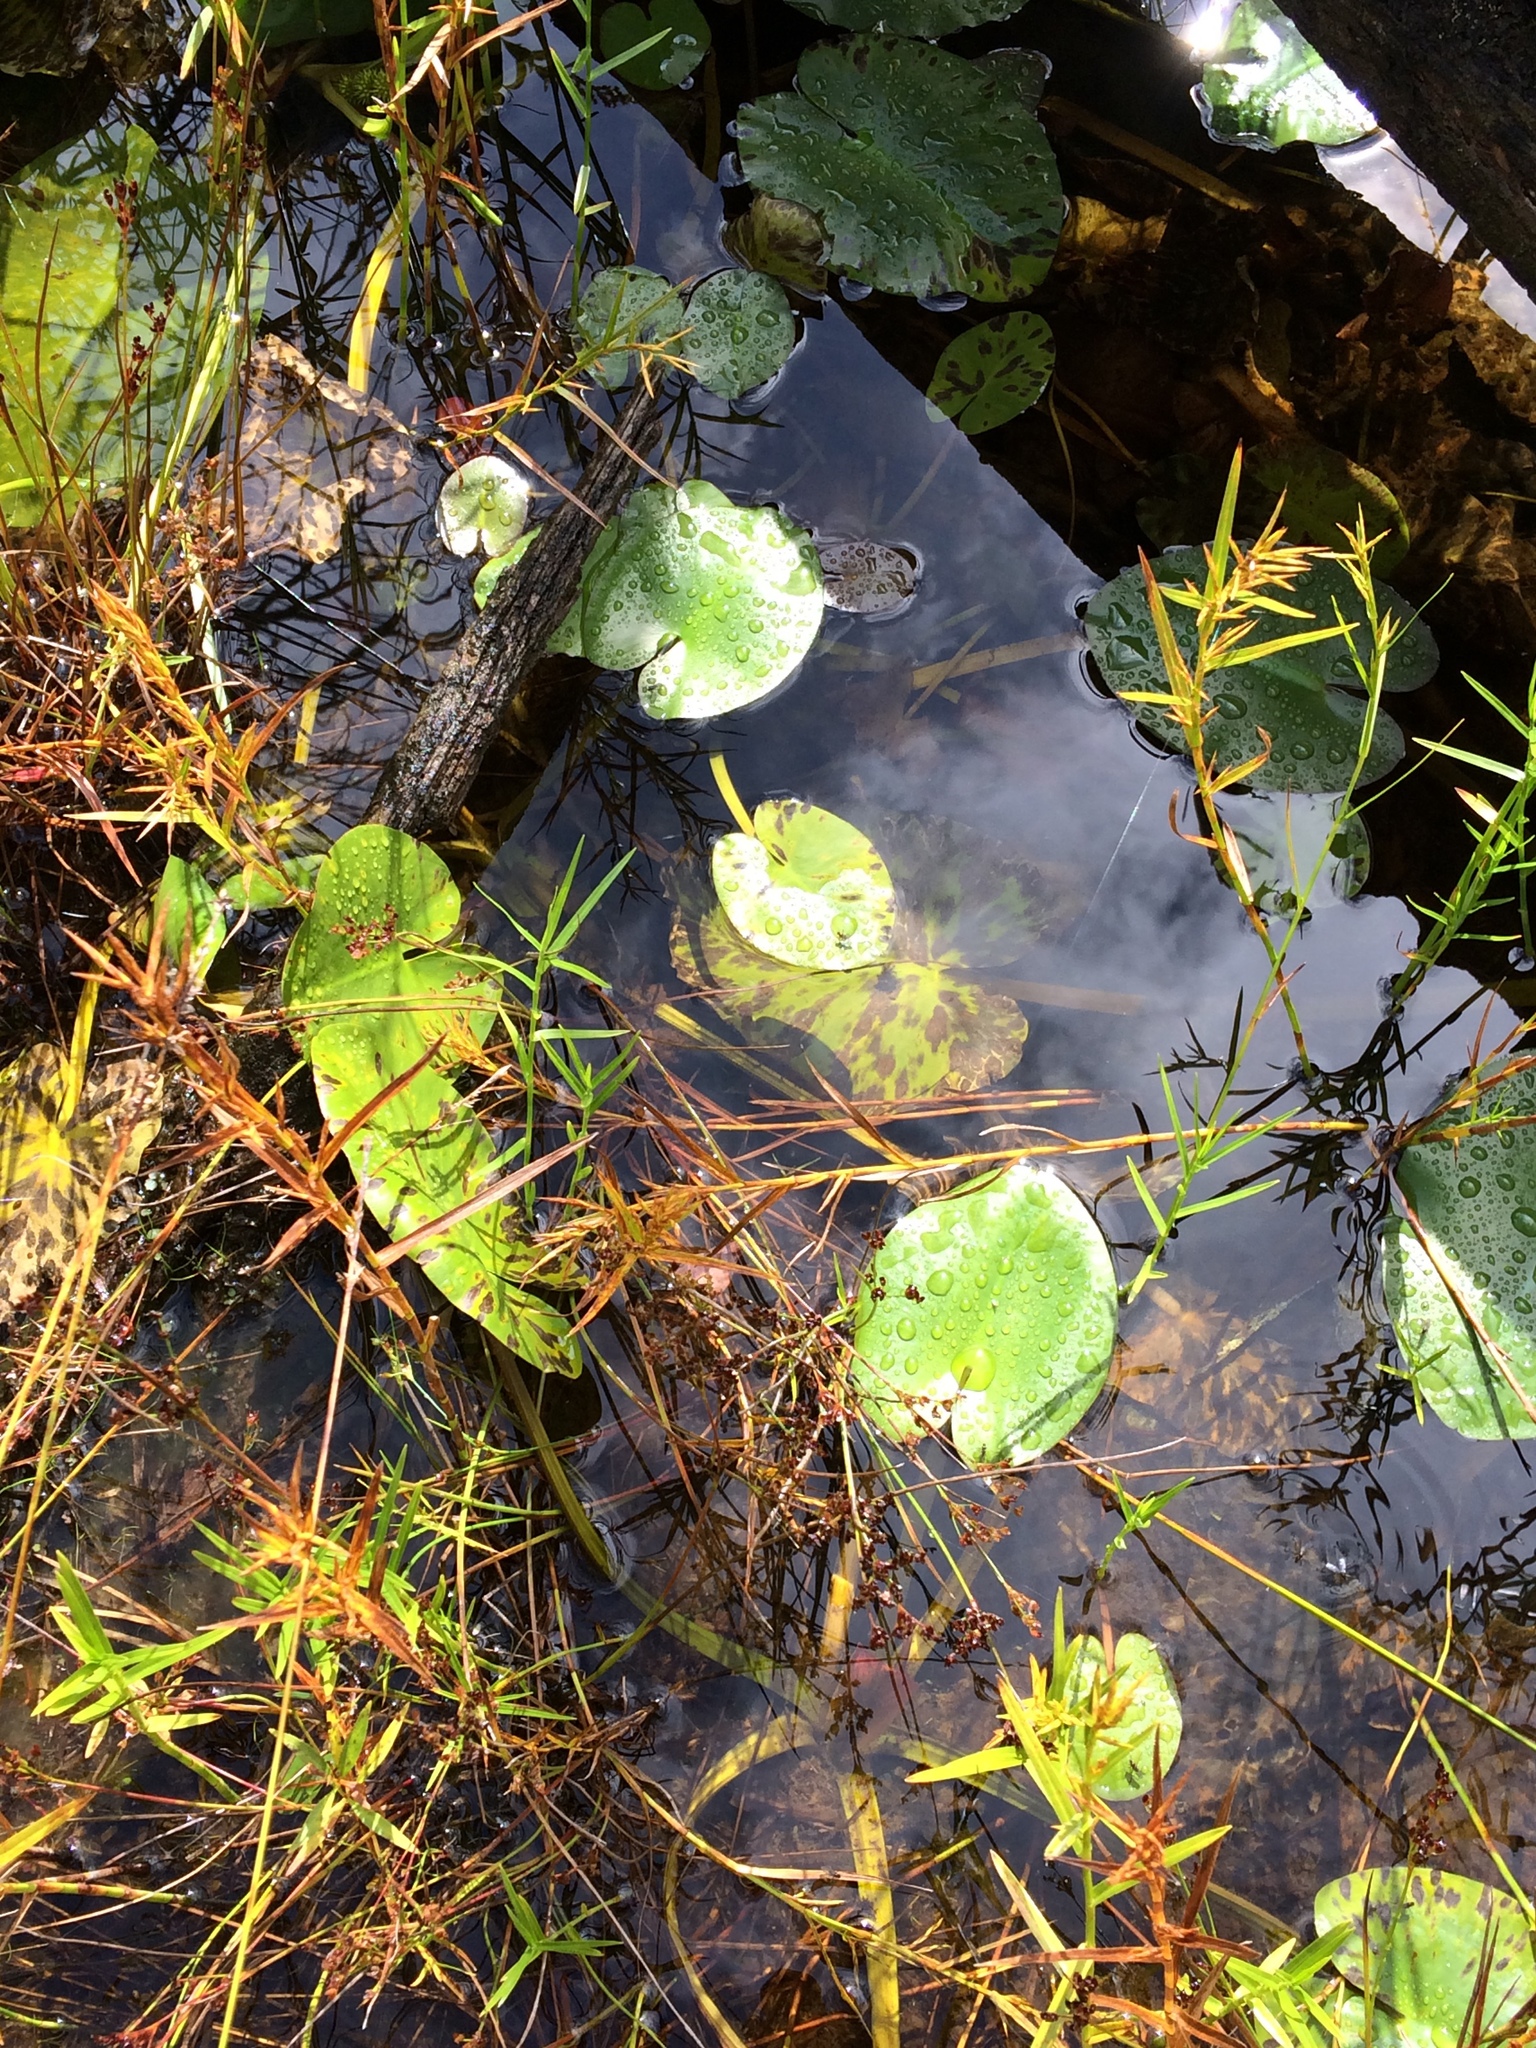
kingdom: Plantae
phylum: Tracheophyta
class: Magnoliopsida
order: Nymphaeales
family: Nymphaeaceae
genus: Nuphar
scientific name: Nuphar variegata
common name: Beaver-root
